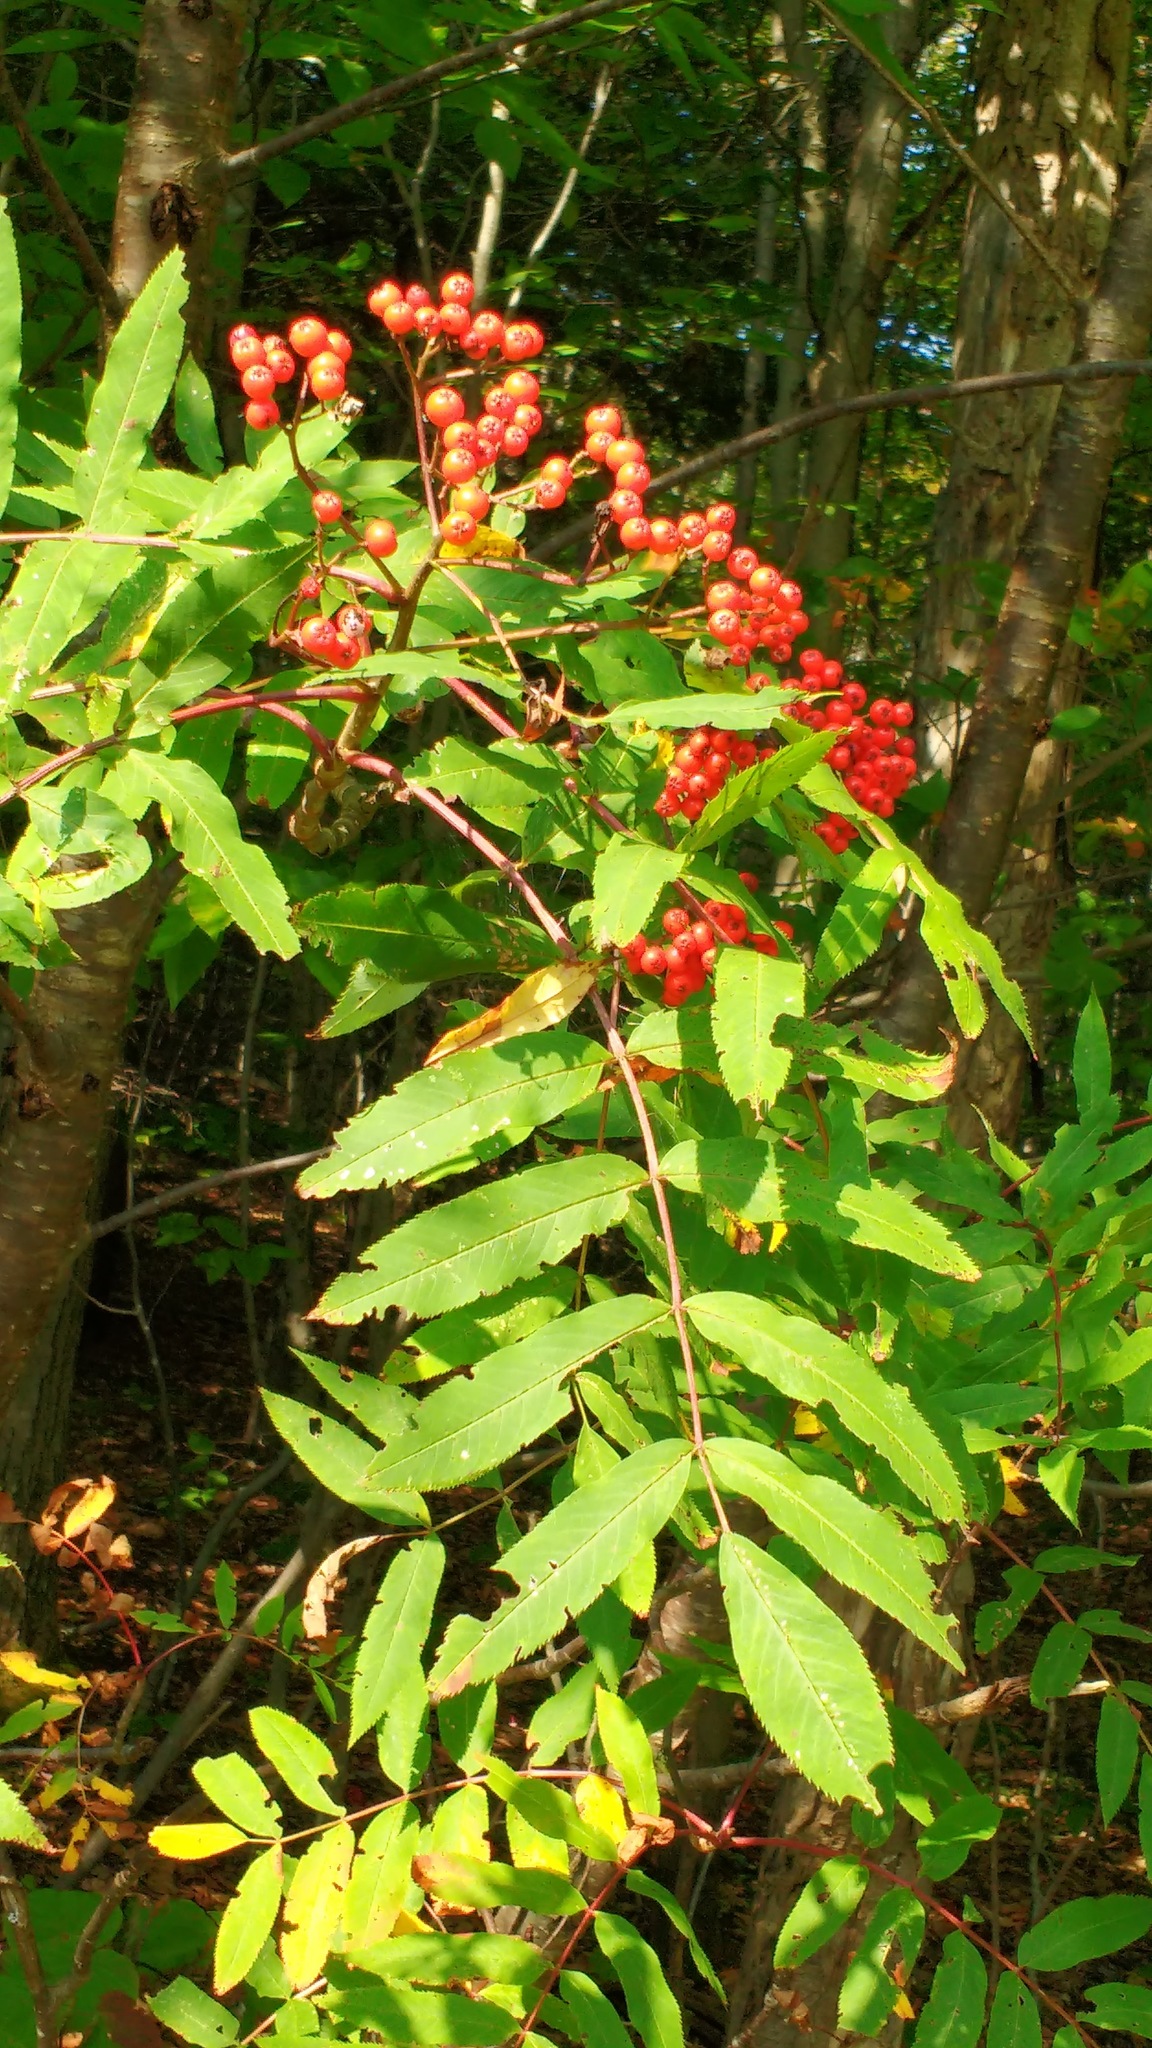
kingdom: Plantae
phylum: Tracheophyta
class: Magnoliopsida
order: Rosales
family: Rosaceae
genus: Sorbus
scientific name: Sorbus americana
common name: American mountain-ash
